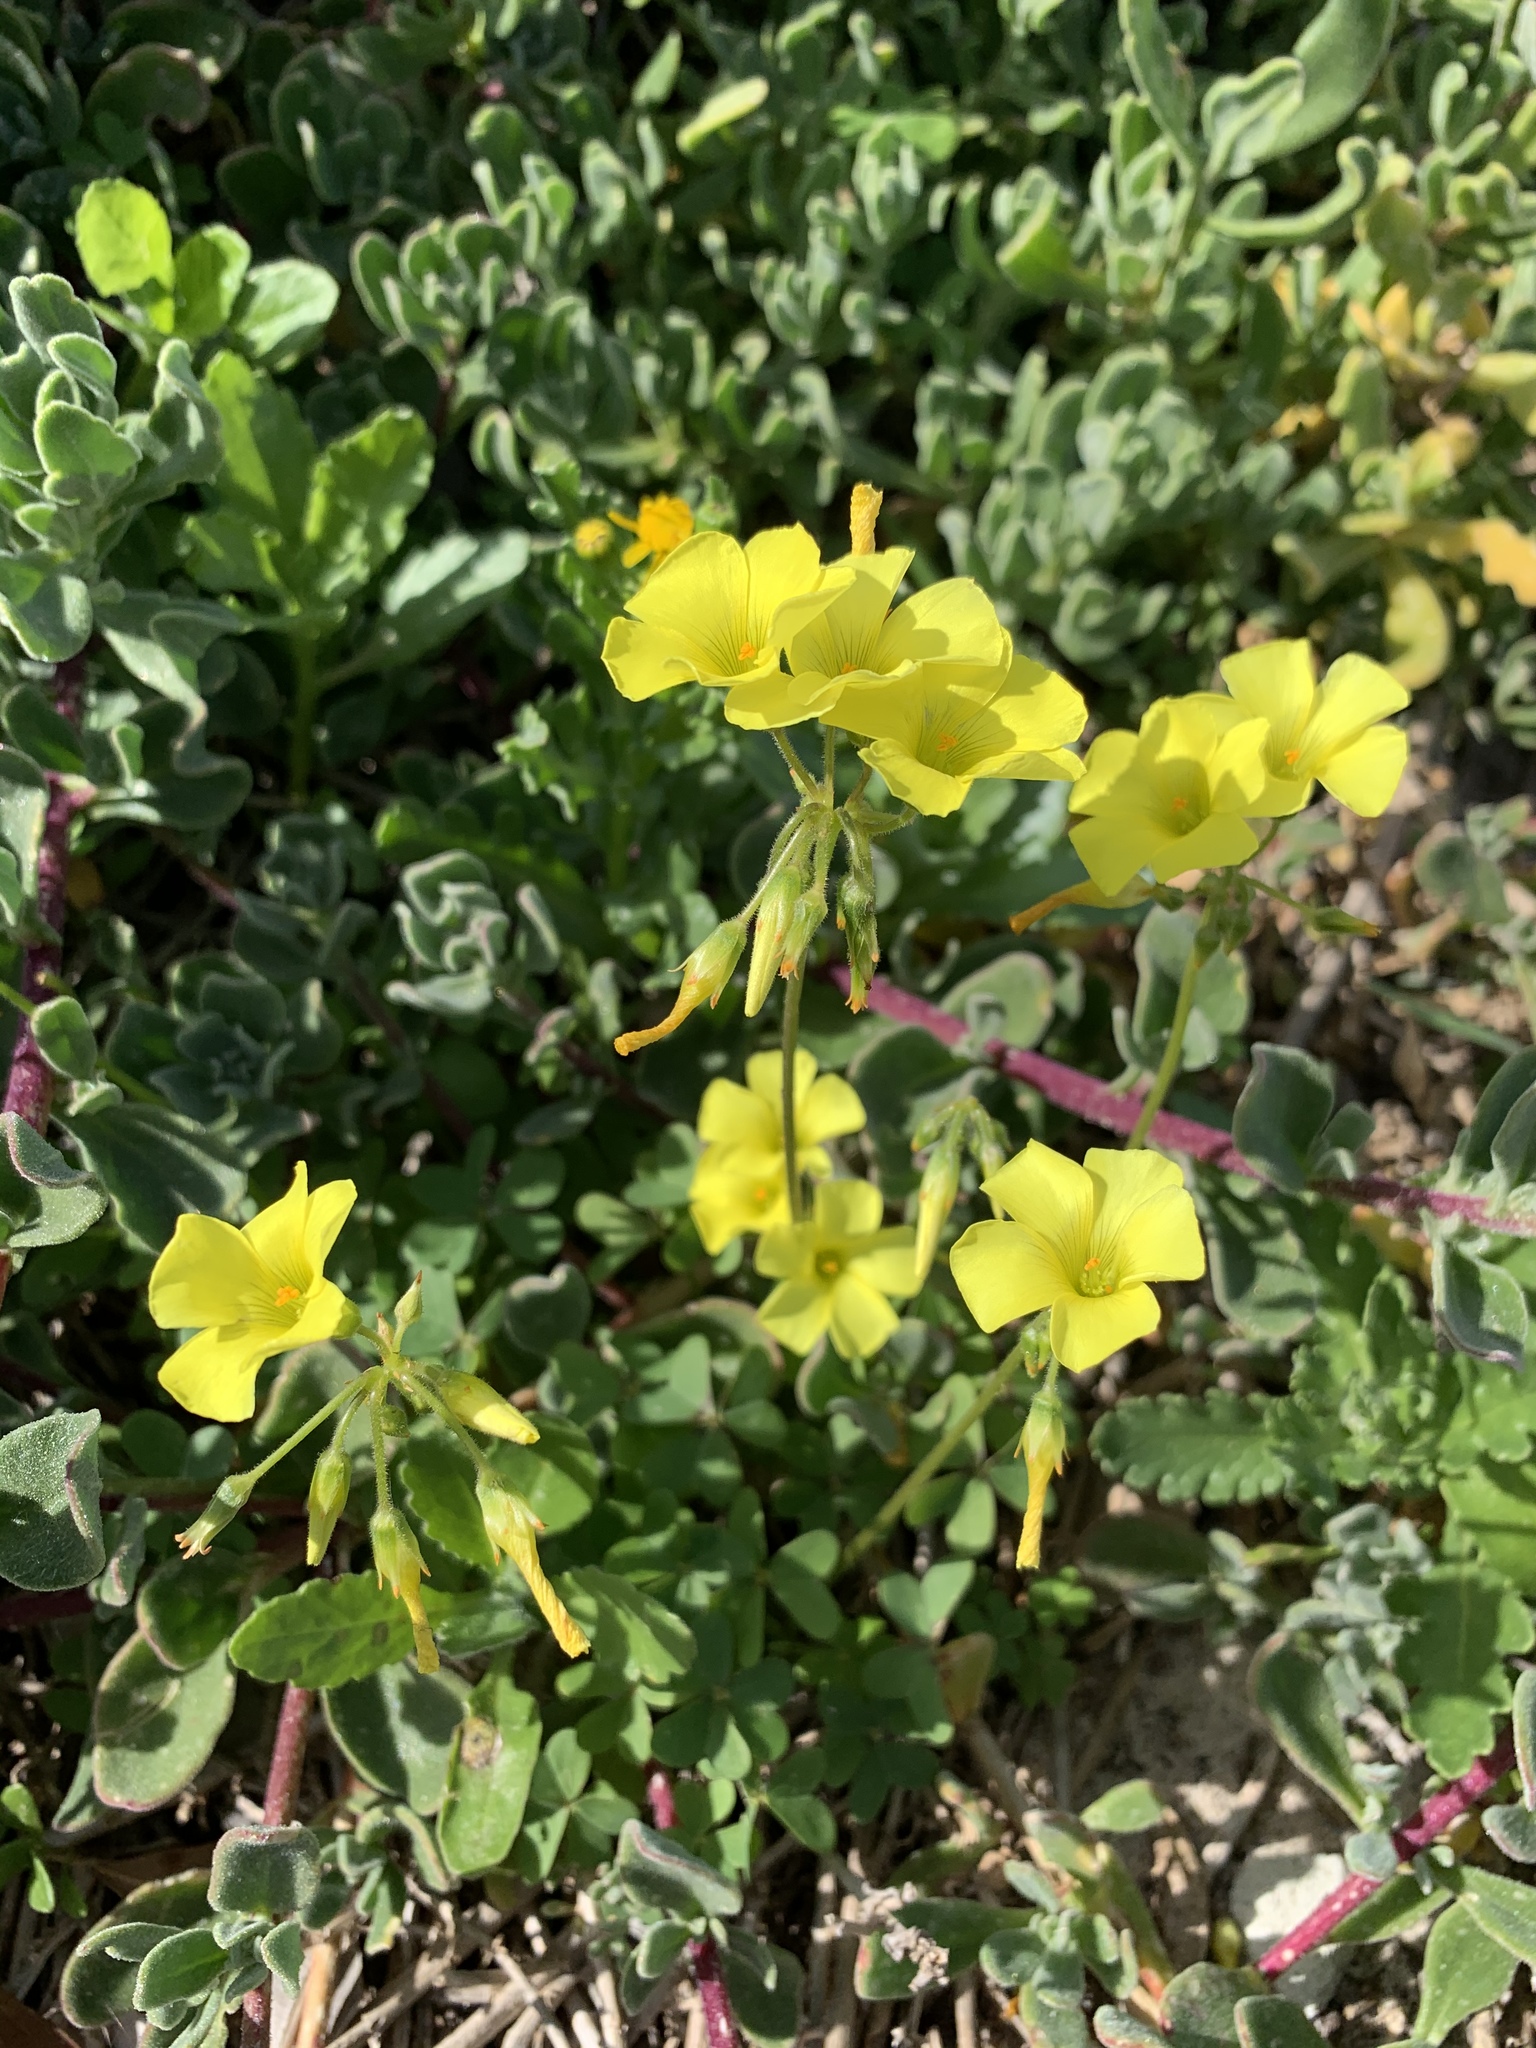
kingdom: Plantae
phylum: Tracheophyta
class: Magnoliopsida
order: Oxalidales
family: Oxalidaceae
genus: Oxalis
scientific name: Oxalis pes-caprae
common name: Bermuda-buttercup
